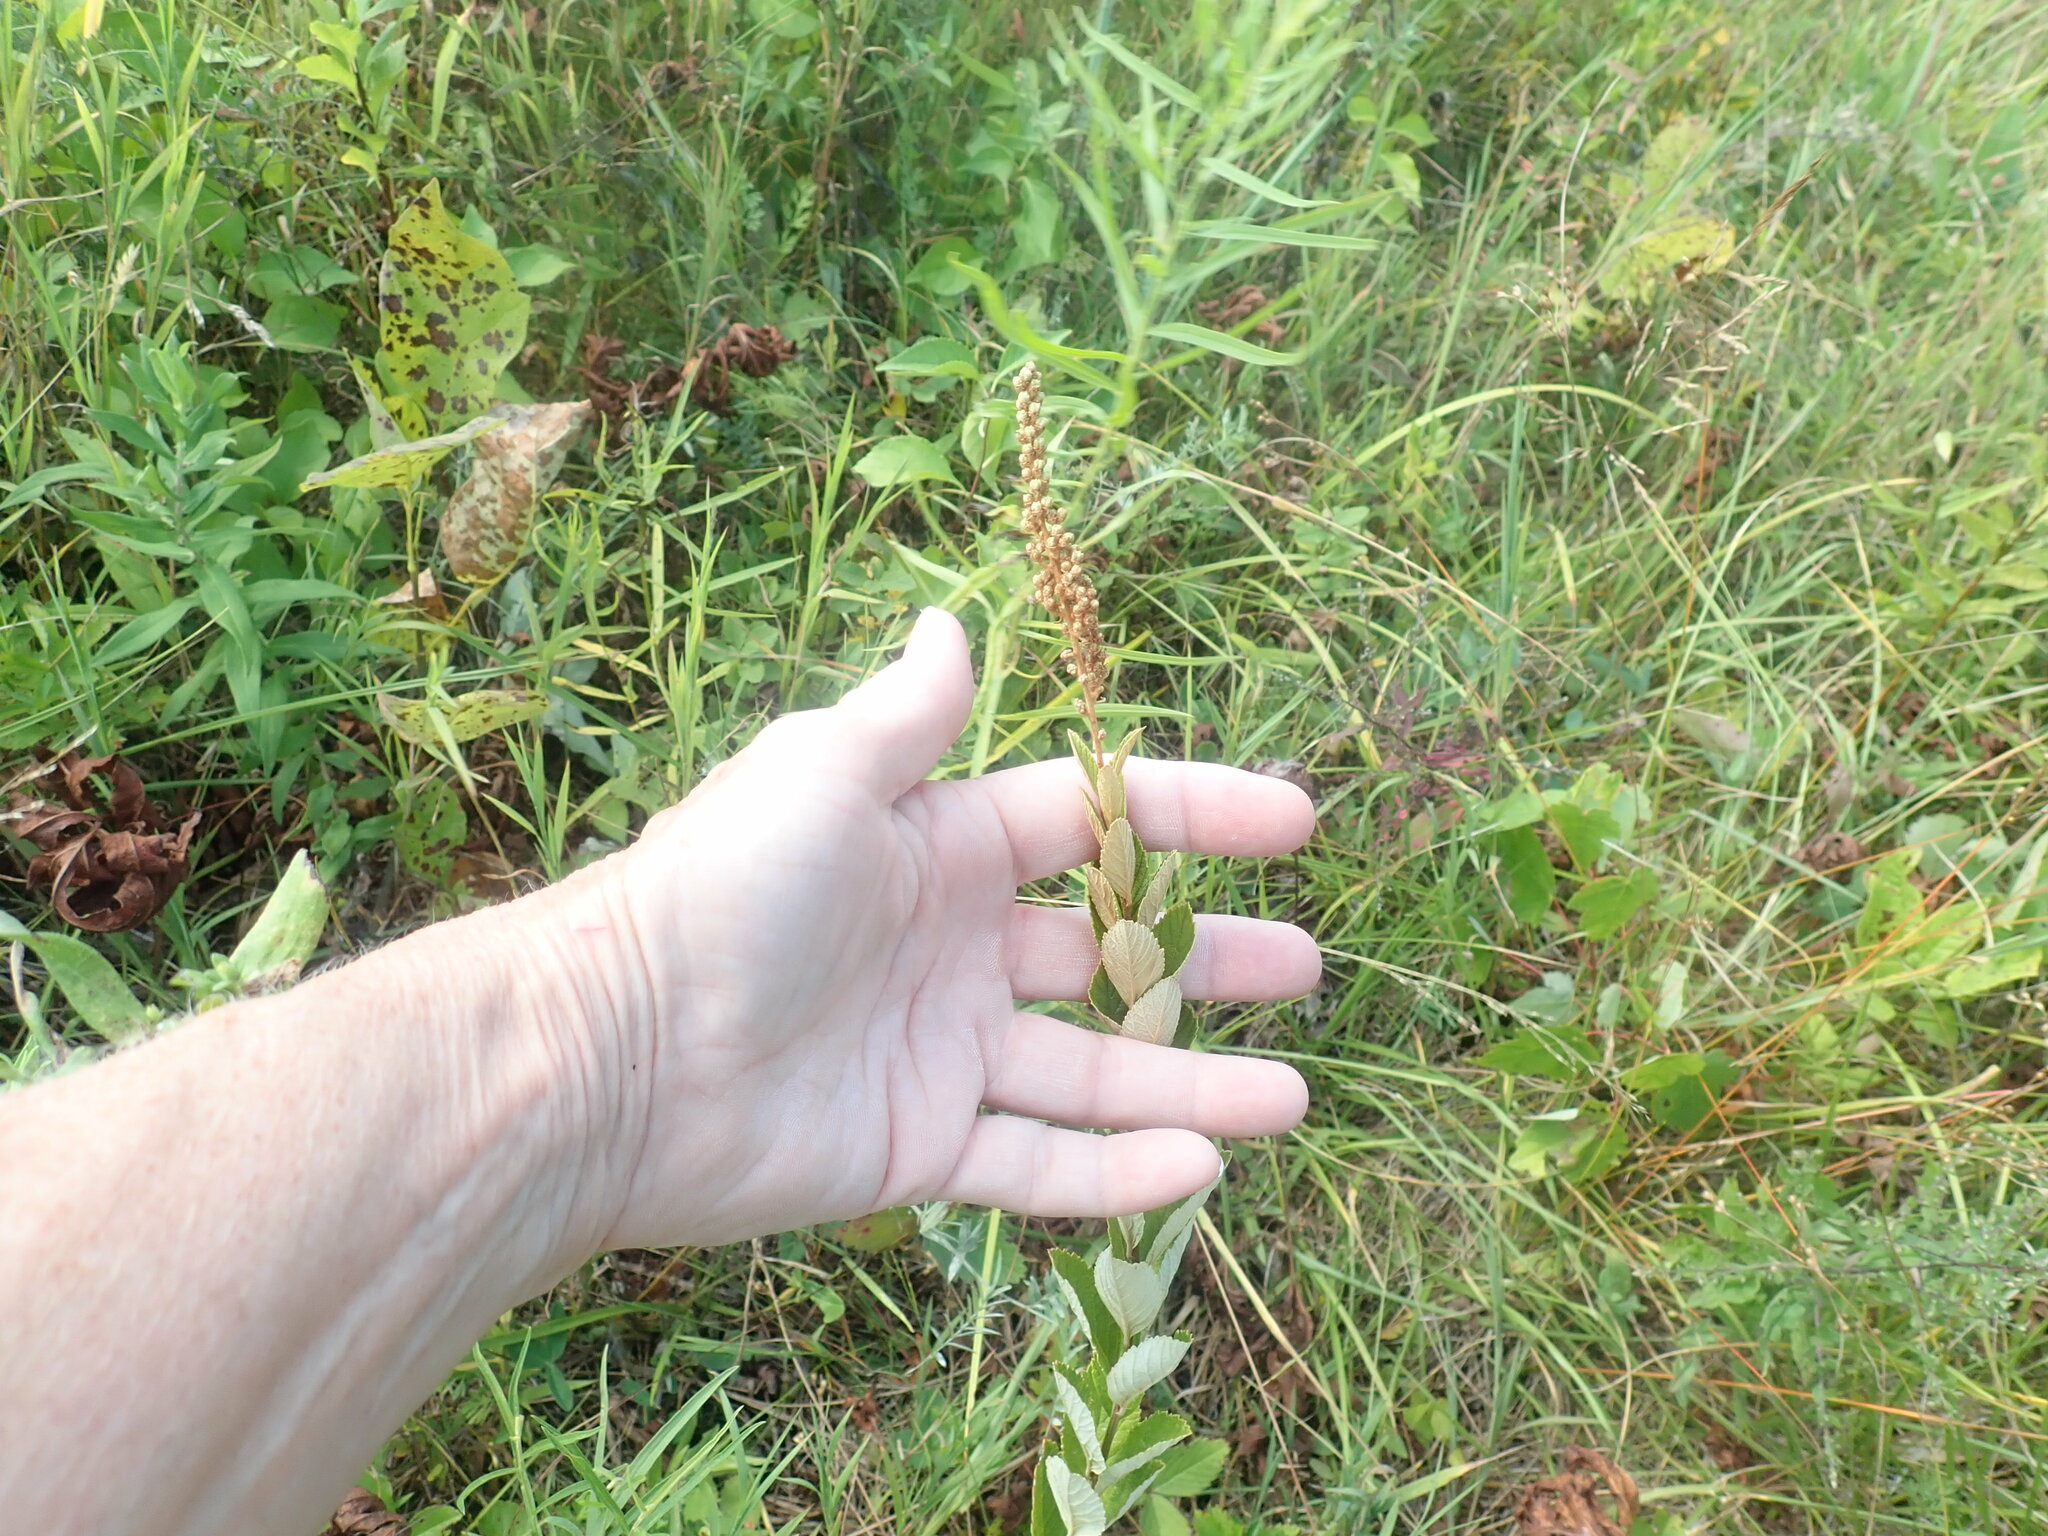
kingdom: Plantae
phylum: Tracheophyta
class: Magnoliopsida
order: Rosales
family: Rosaceae
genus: Spiraea
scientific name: Spiraea tomentosa
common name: Hardhack
